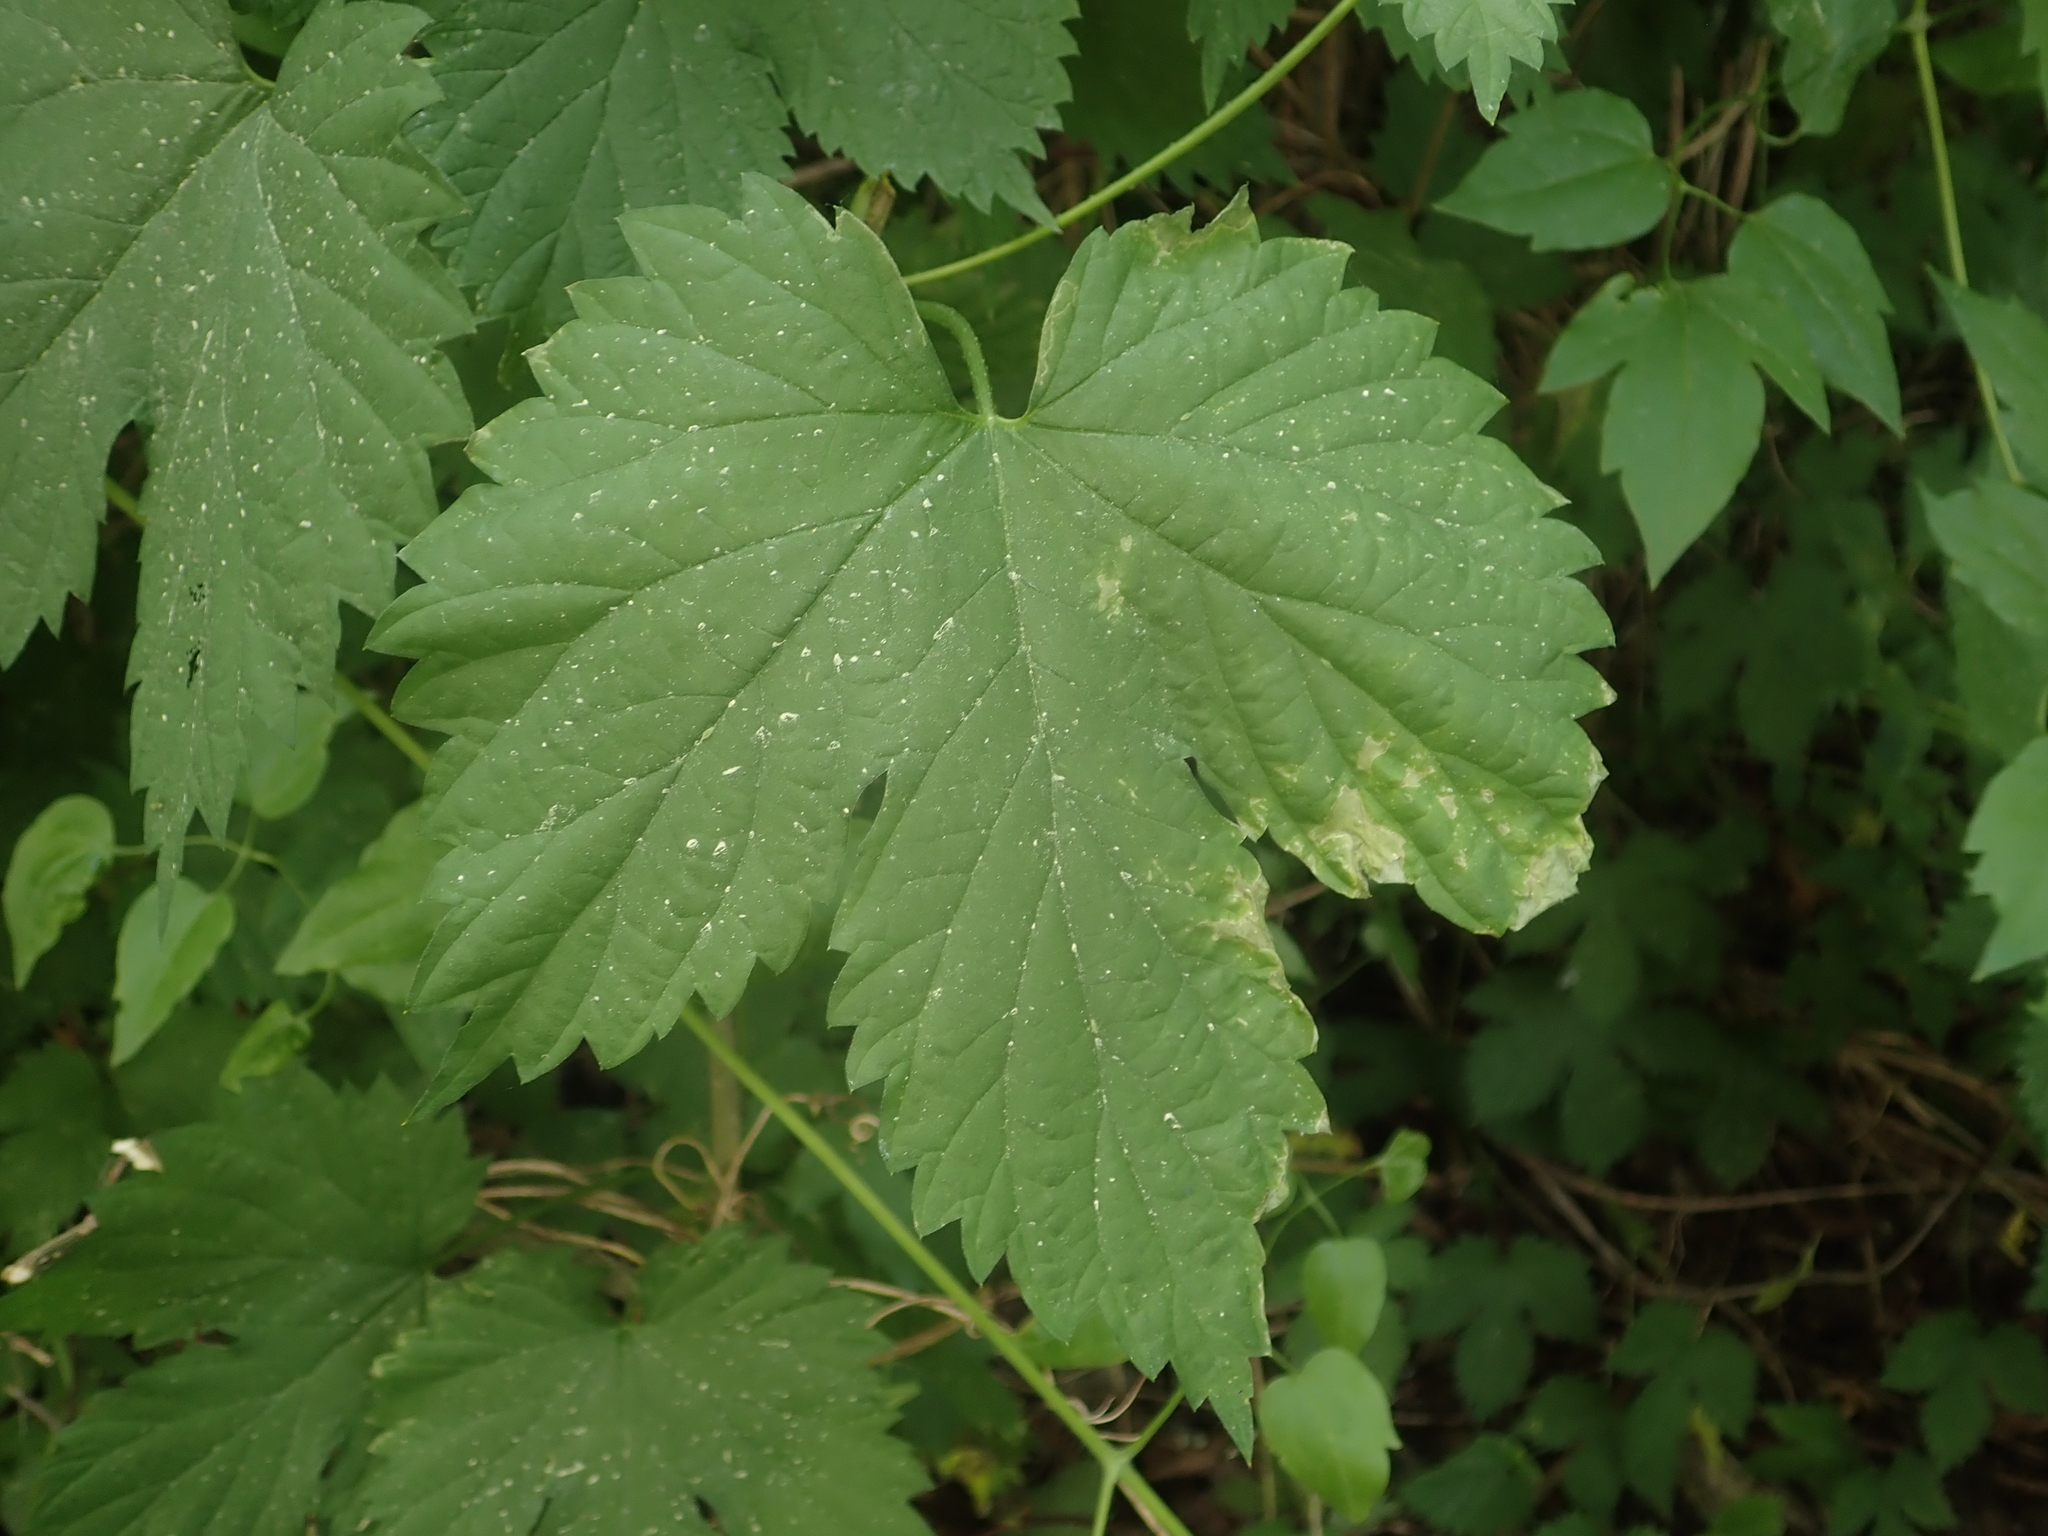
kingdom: Plantae
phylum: Tracheophyta
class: Magnoliopsida
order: Rosales
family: Cannabaceae
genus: Humulus
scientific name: Humulus lupulus
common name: Hop
